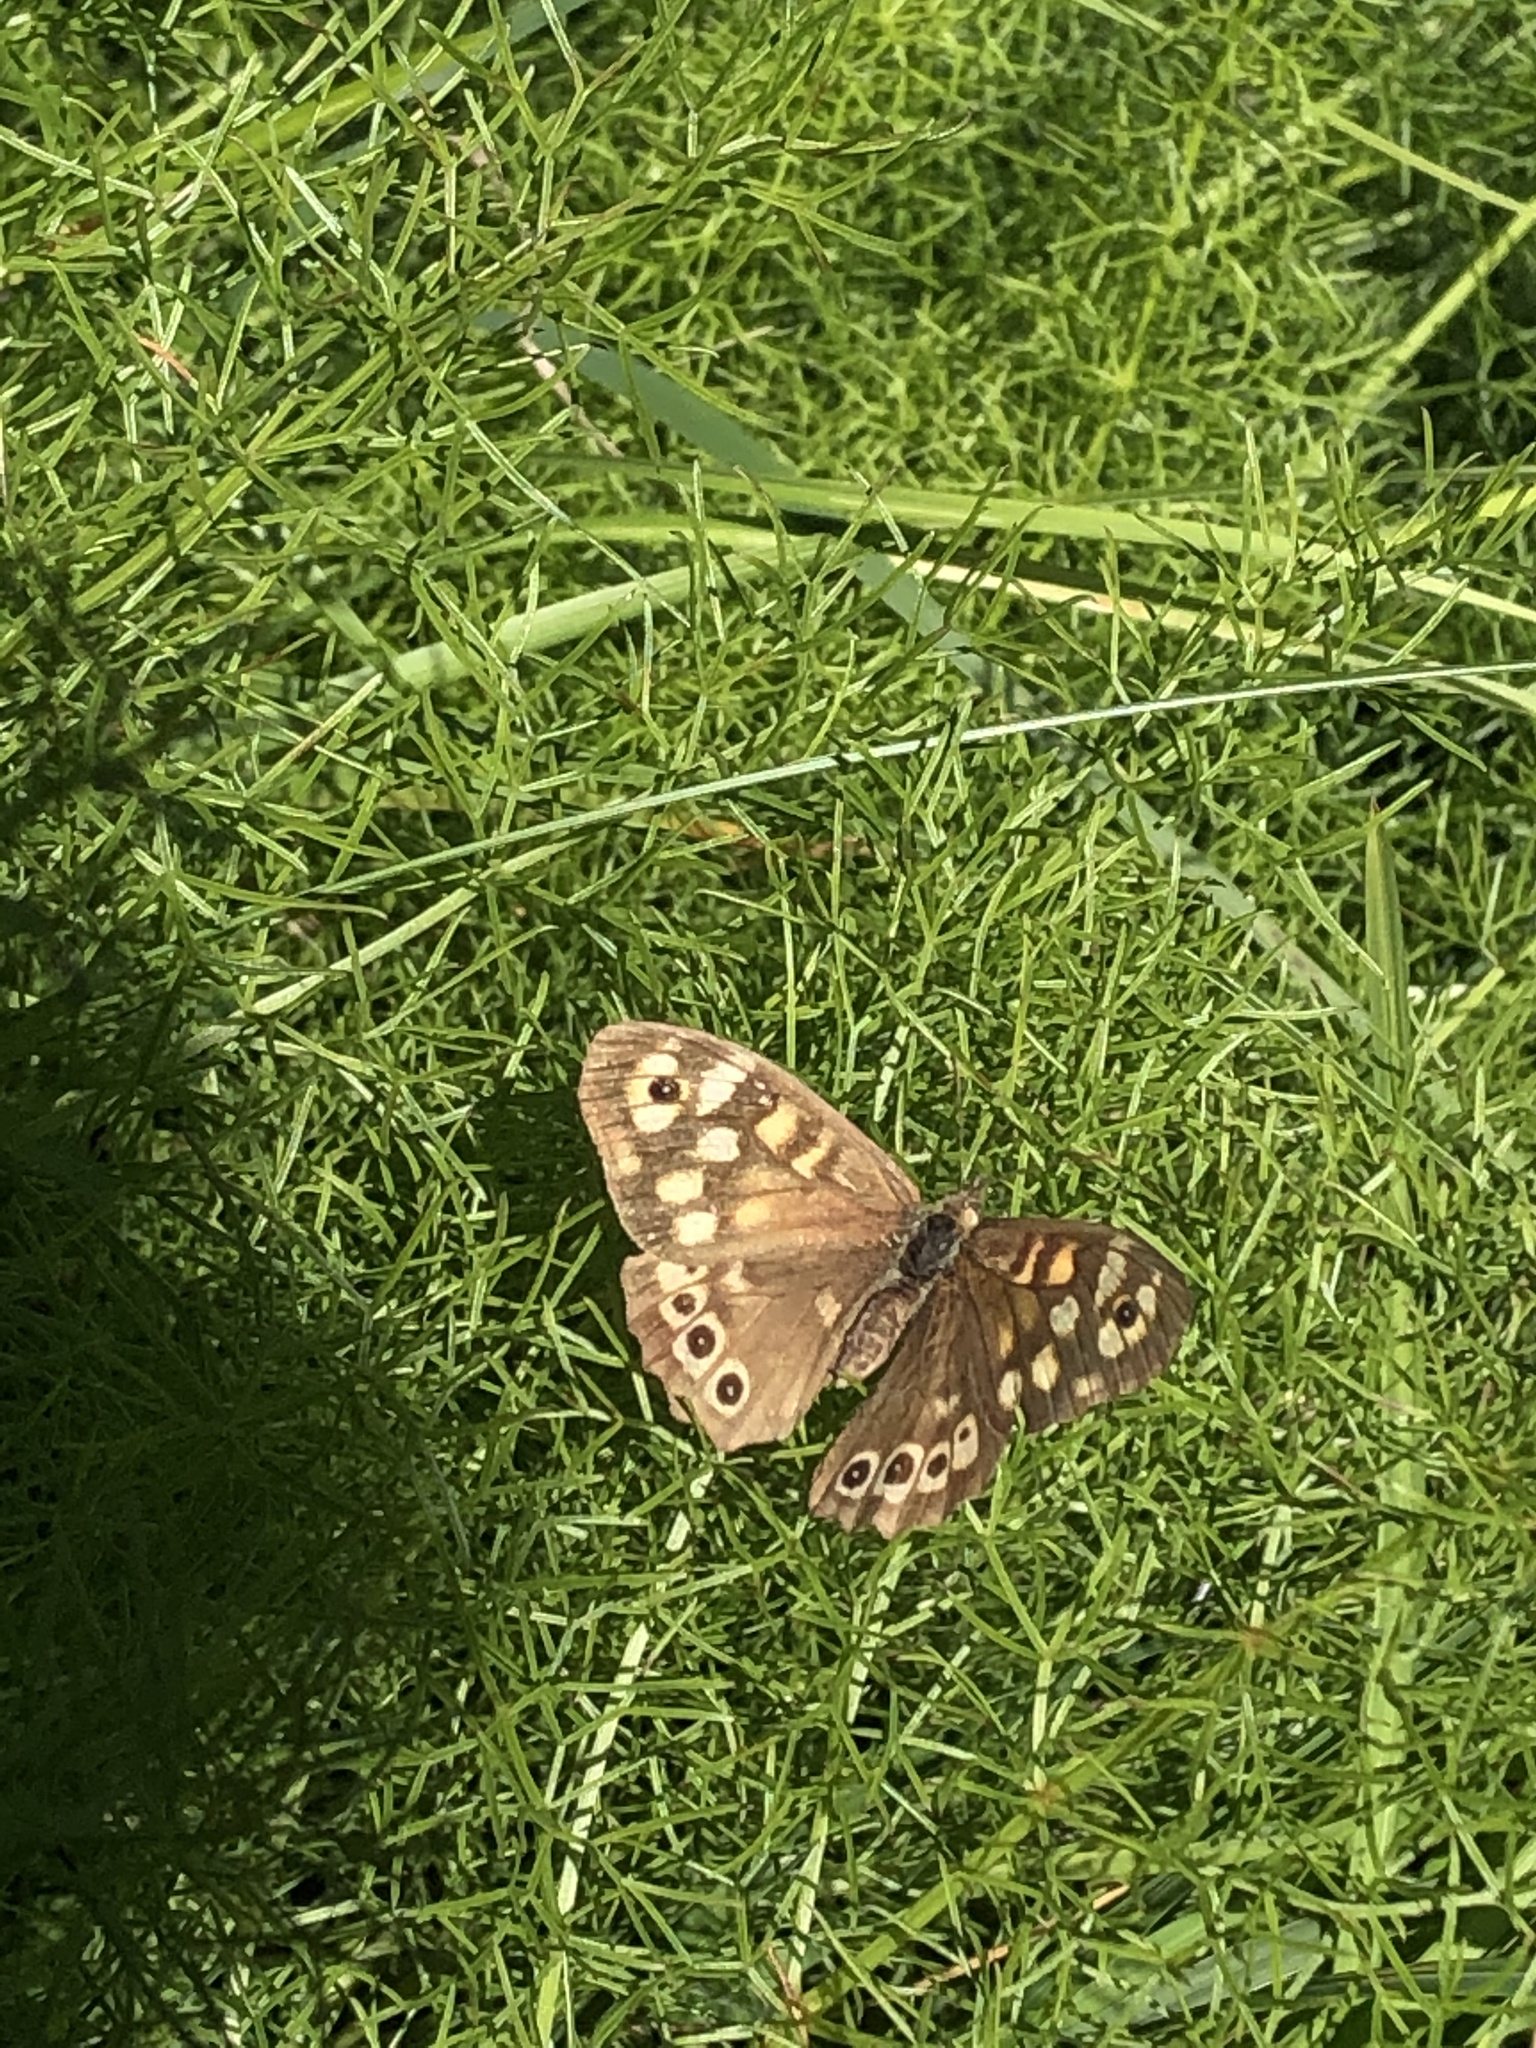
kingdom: Animalia
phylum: Arthropoda
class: Insecta
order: Lepidoptera
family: Nymphalidae
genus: Pararge
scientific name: Pararge aegeria
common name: Speckled wood
